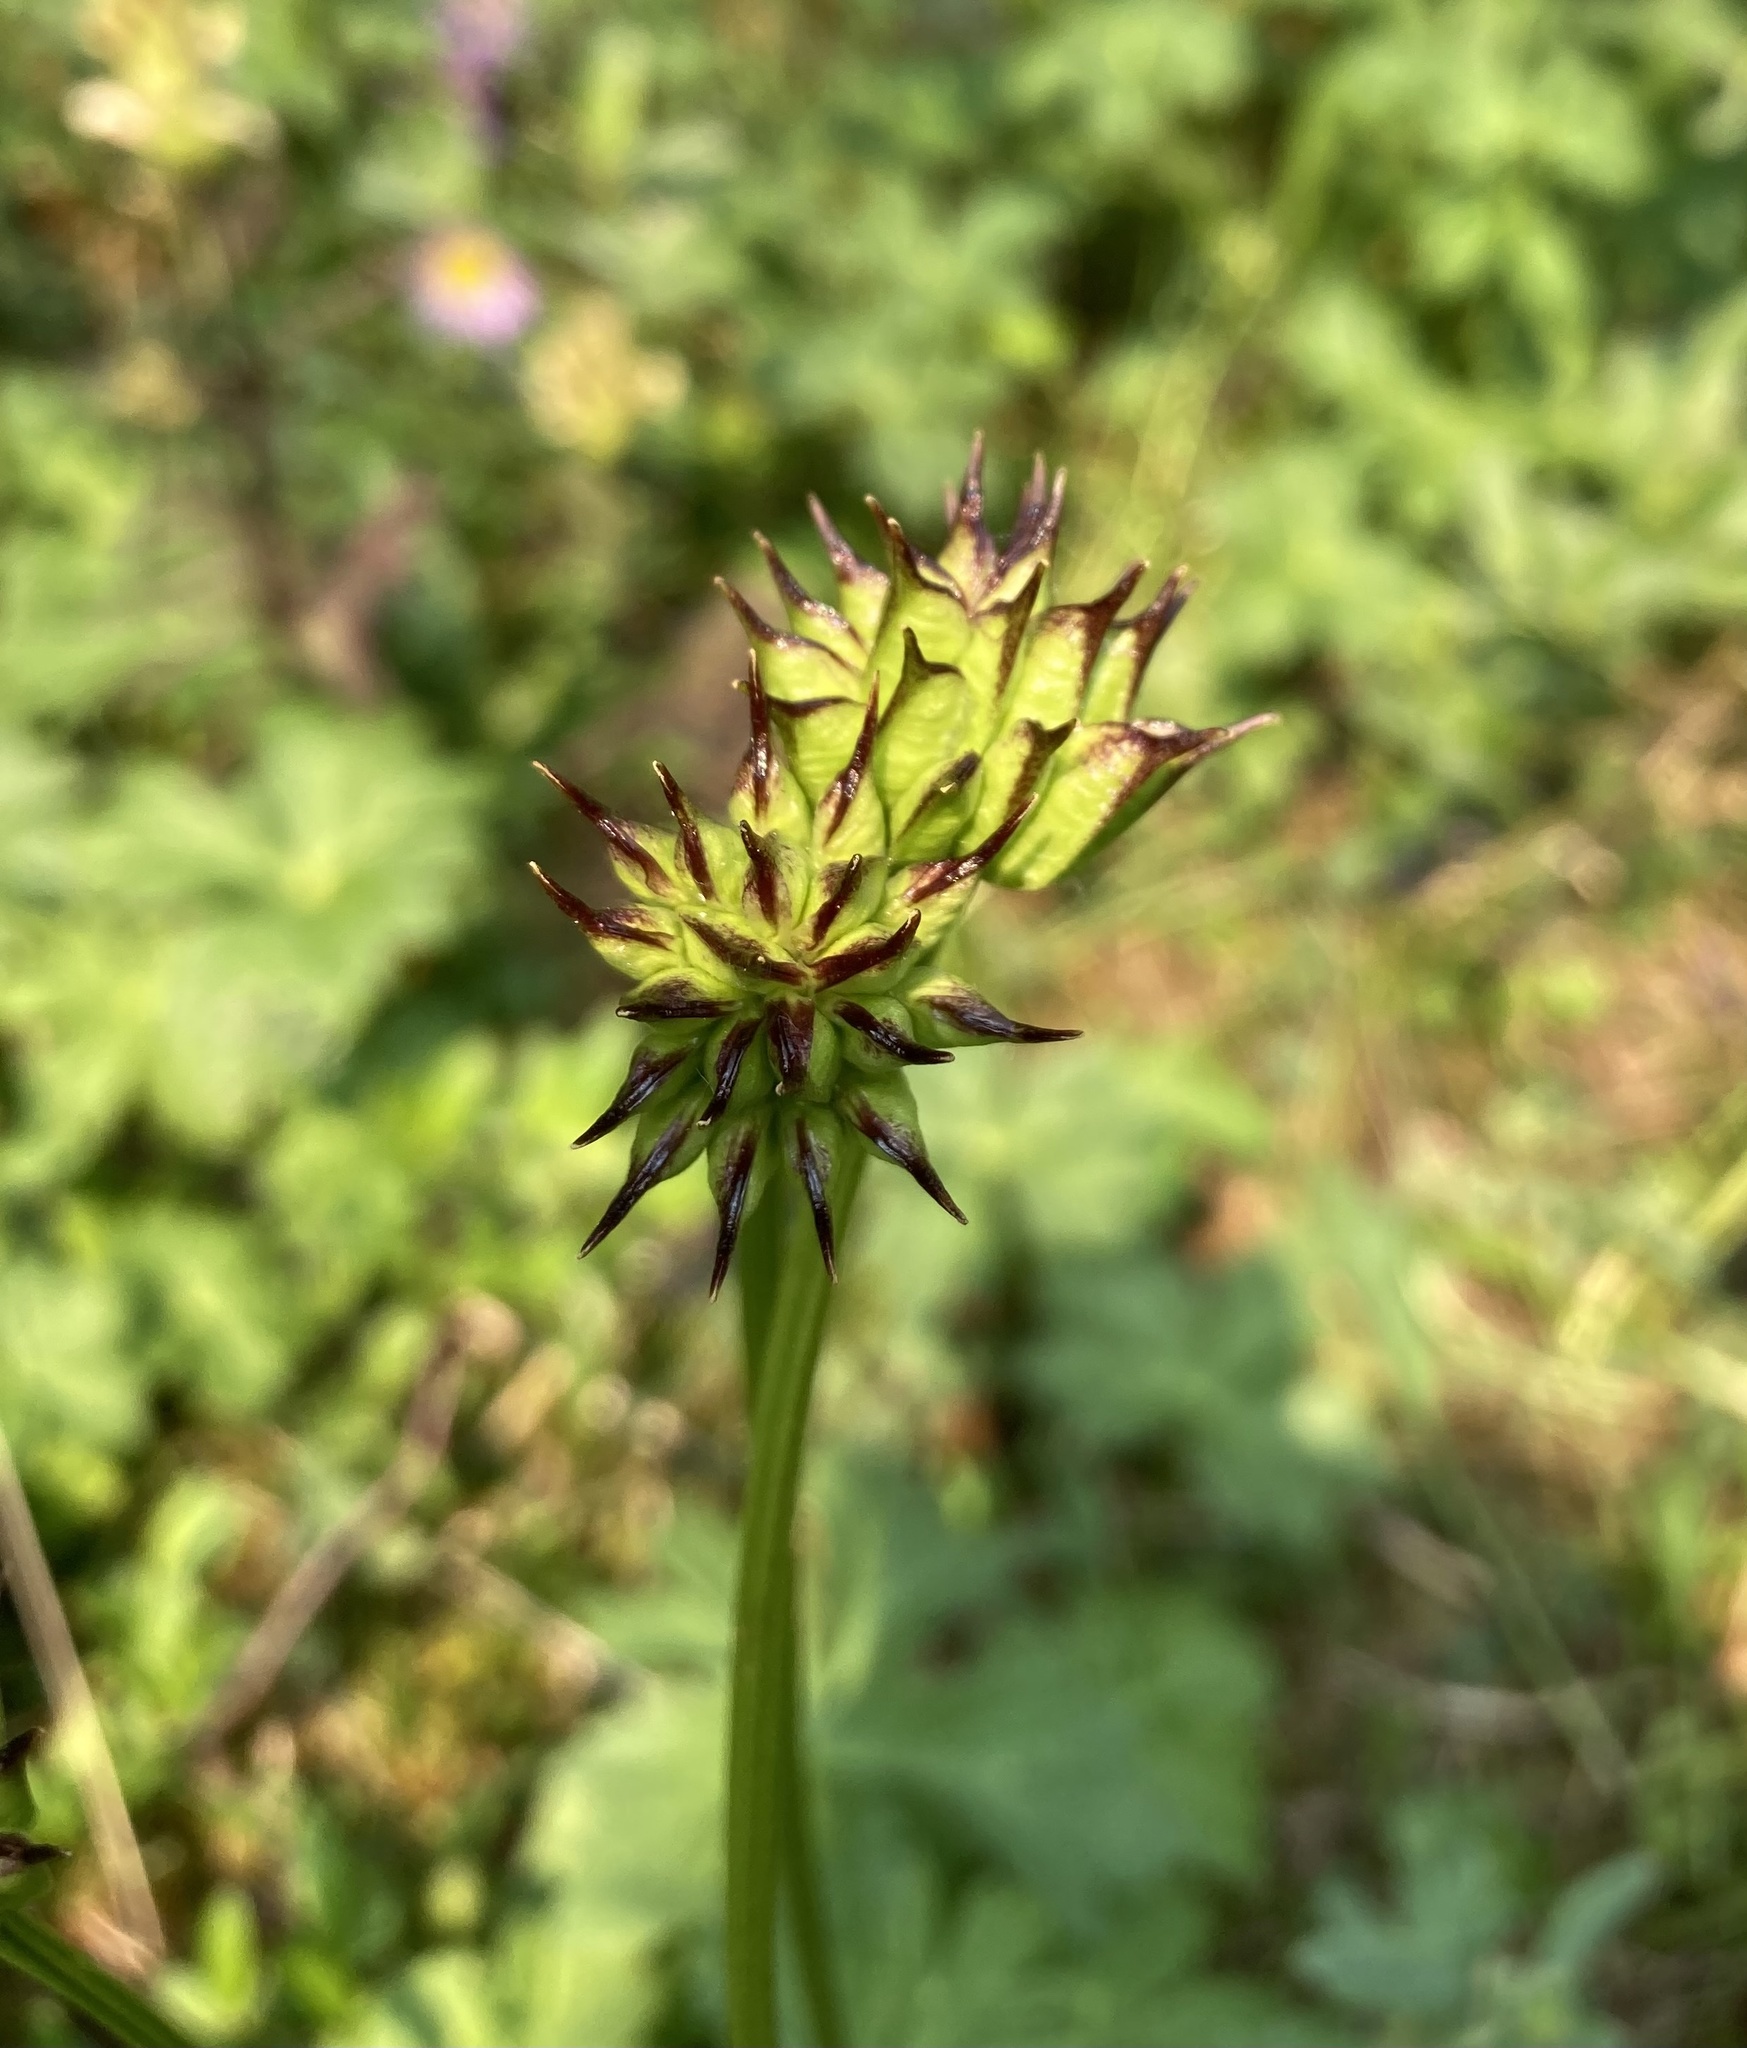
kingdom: Plantae
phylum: Tracheophyta
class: Magnoliopsida
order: Ranunculales
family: Ranunculaceae
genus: Trollius
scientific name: Trollius laxus
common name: American globeflower
